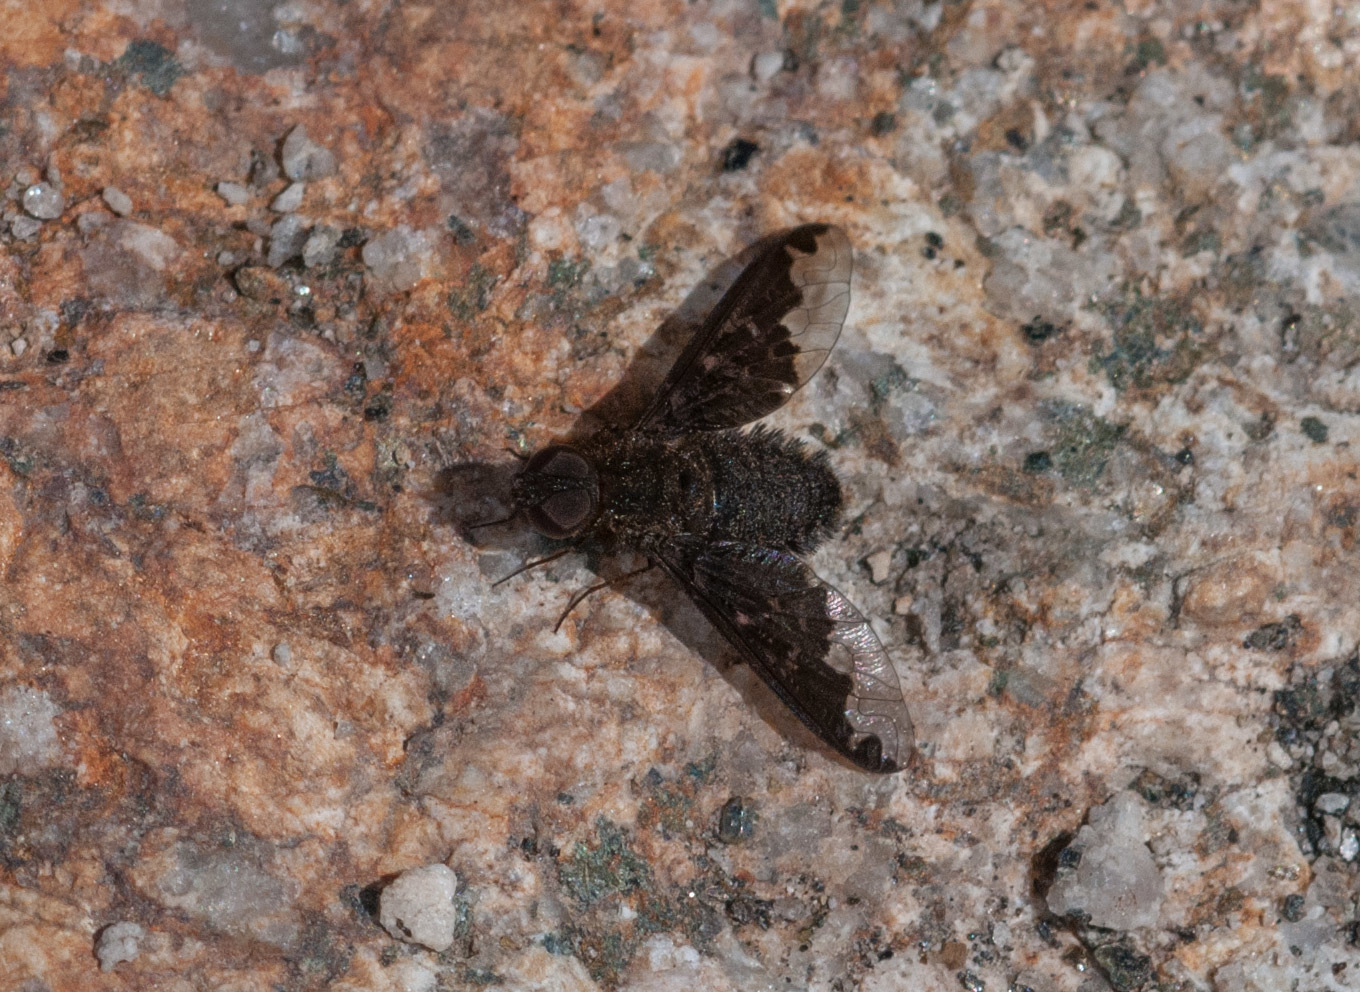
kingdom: Animalia
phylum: Arthropoda
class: Insecta
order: Diptera
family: Bombyliidae
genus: Hemipenthes
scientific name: Hemipenthes sinuosus
